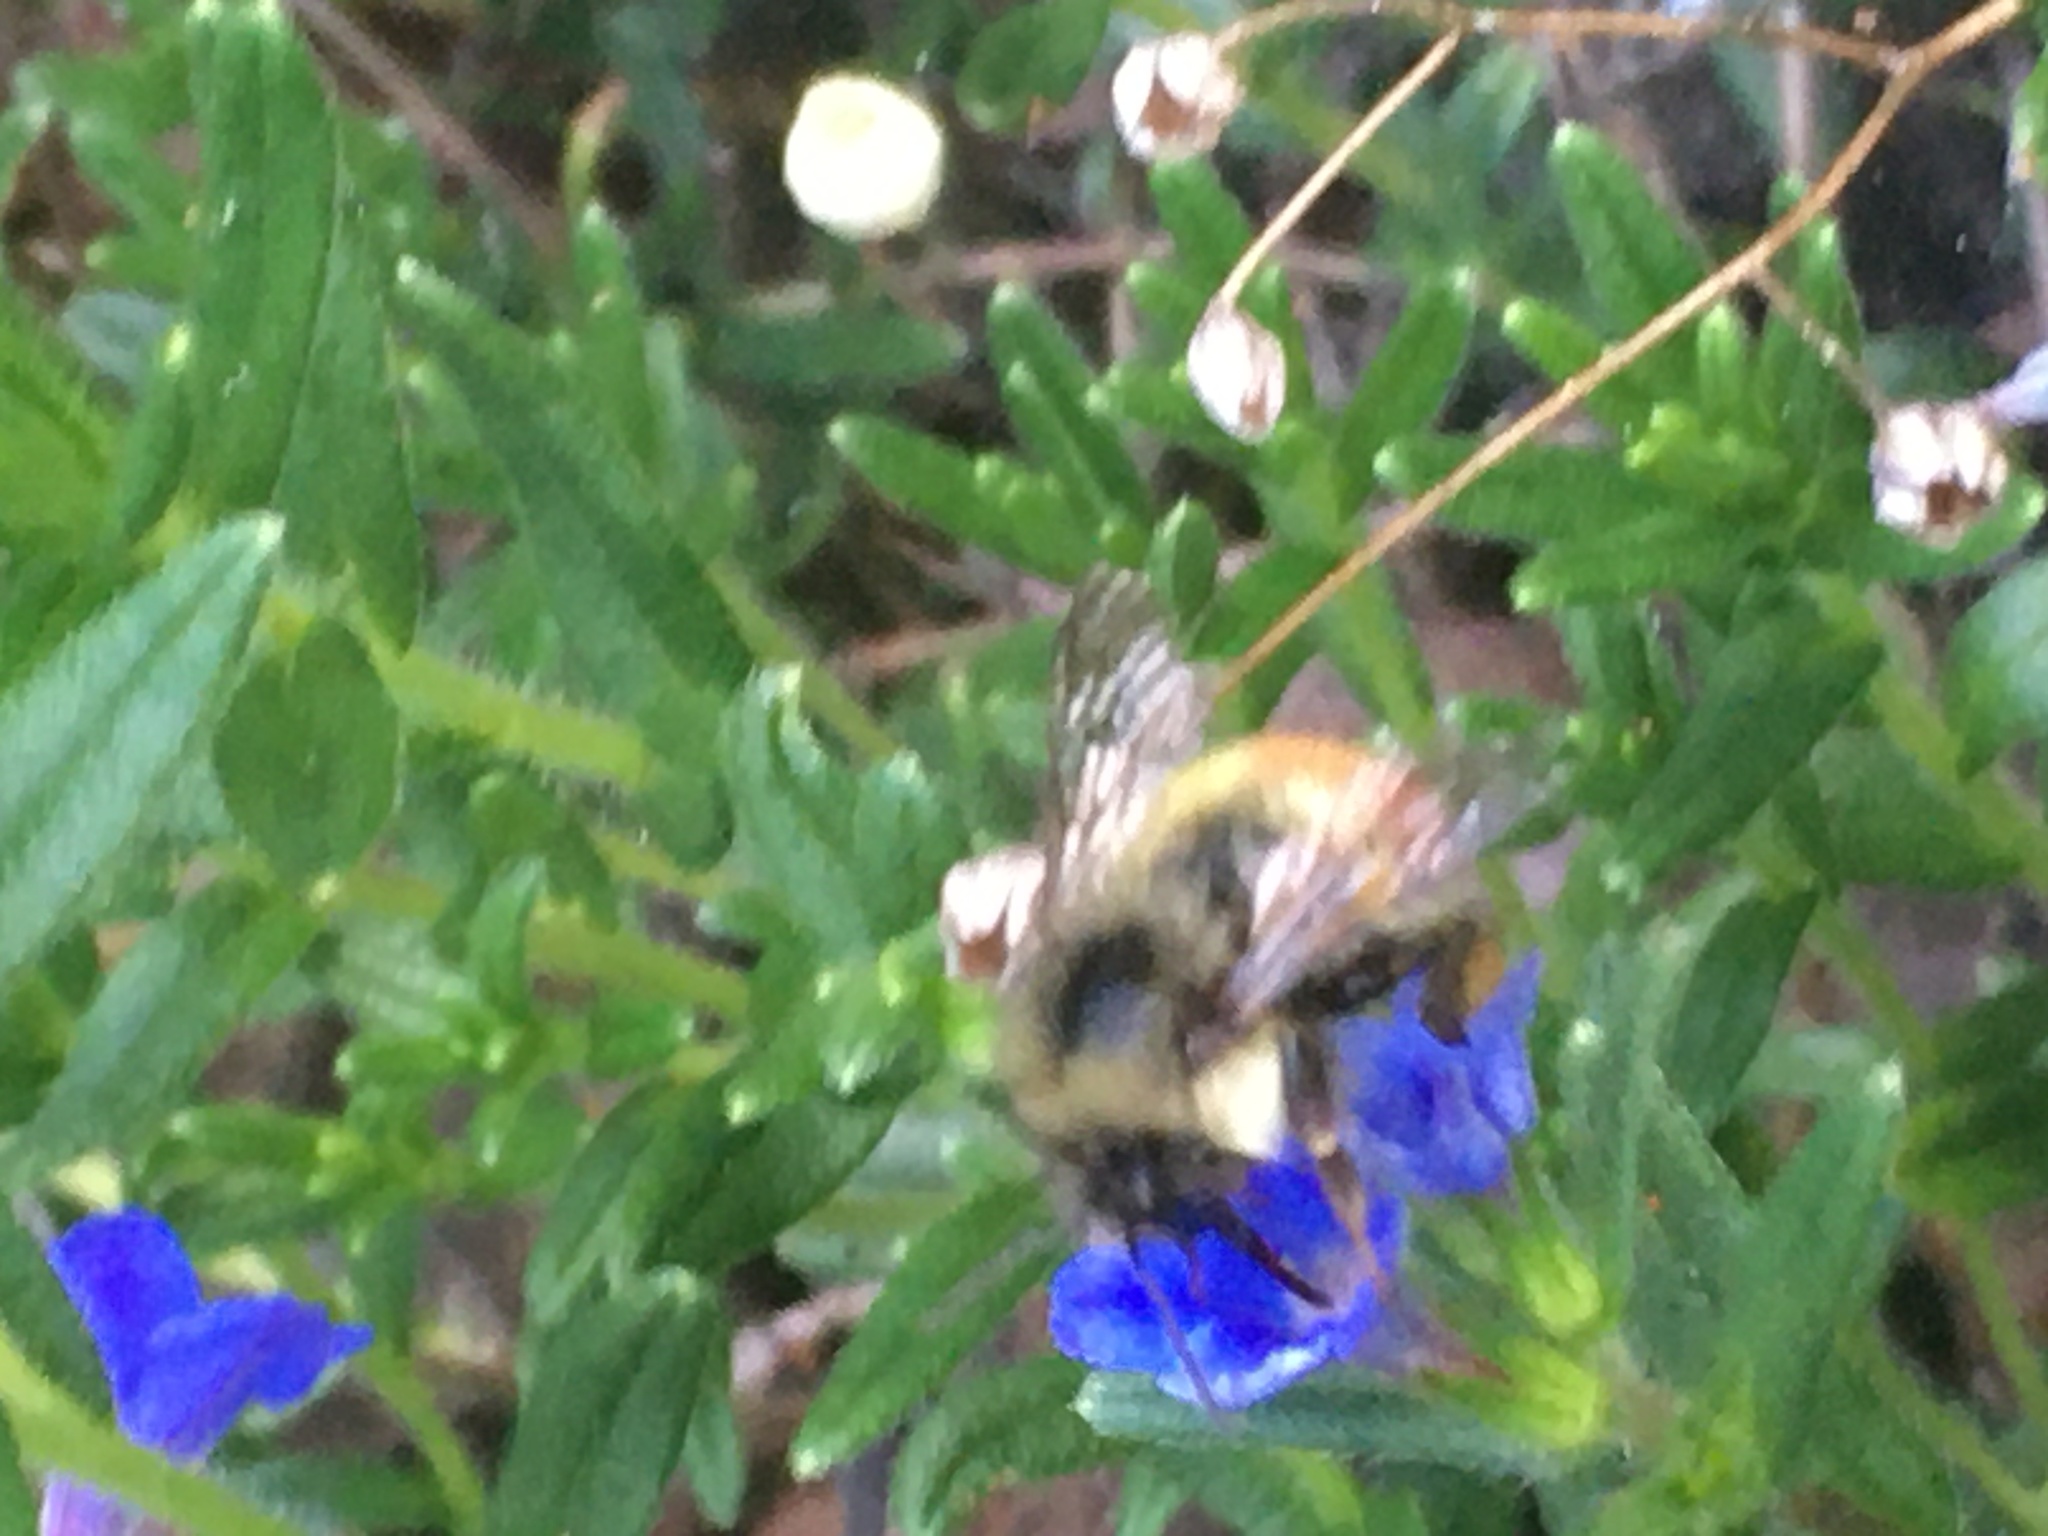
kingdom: Animalia
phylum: Arthropoda
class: Insecta
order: Hymenoptera
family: Apidae
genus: Bombus
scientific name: Bombus flavifrons
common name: Yellow head bumble bee
